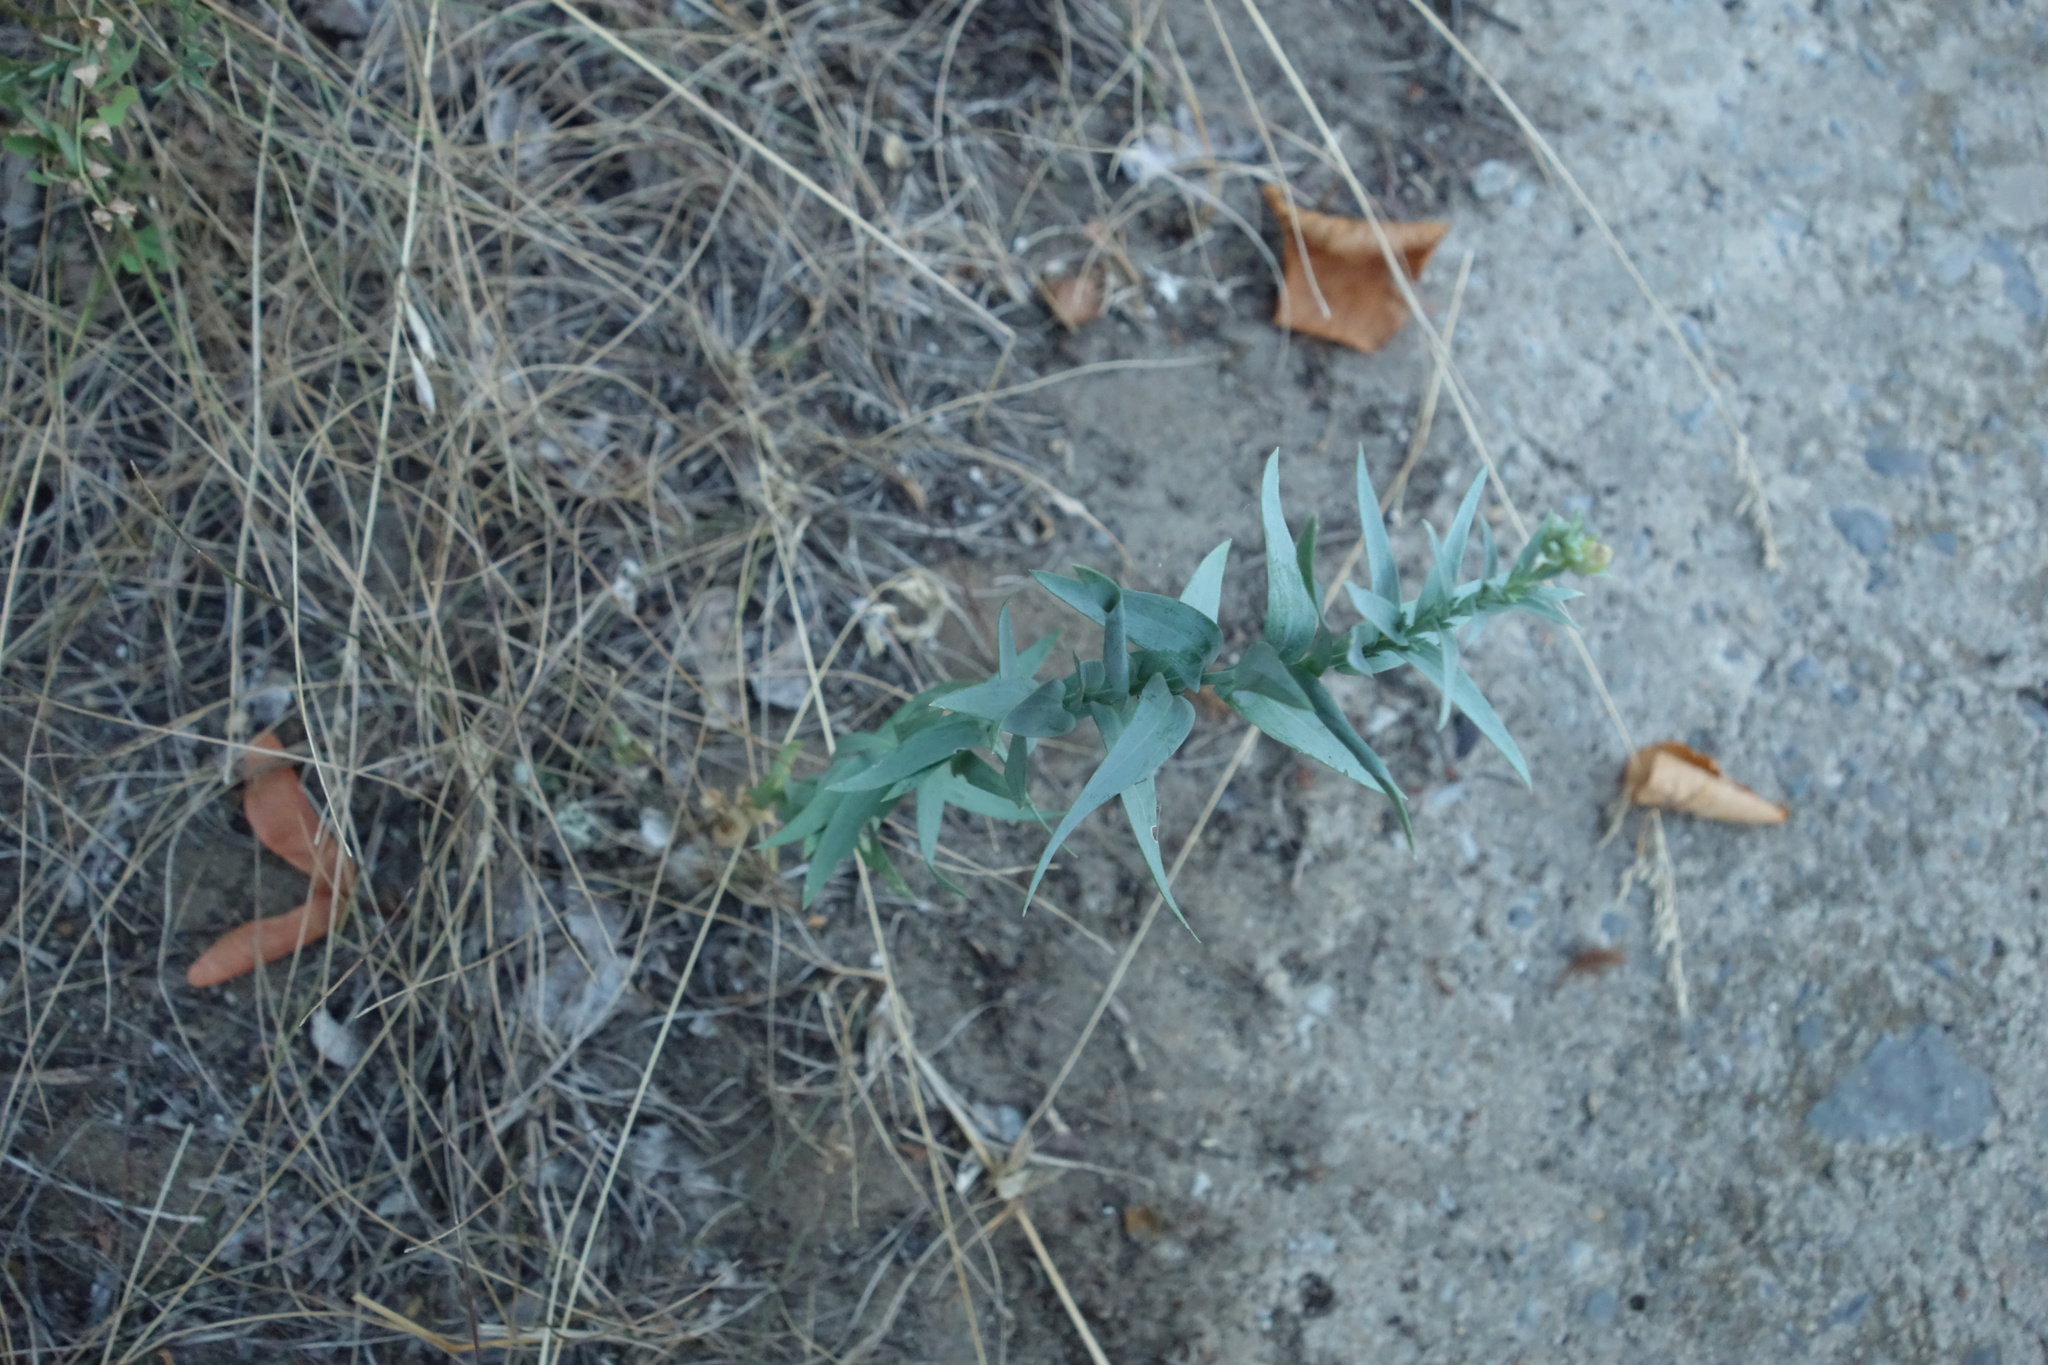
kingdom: Plantae
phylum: Tracheophyta
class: Magnoliopsida
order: Lamiales
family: Plantaginaceae
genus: Linaria
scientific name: Linaria genistifolia
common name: Broomleaf toadflax
